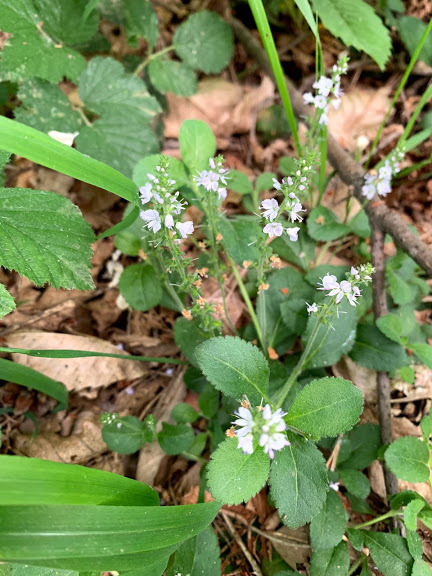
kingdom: Plantae
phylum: Tracheophyta
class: Magnoliopsida
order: Lamiales
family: Plantaginaceae
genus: Veronica
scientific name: Veronica officinalis
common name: Common speedwell
